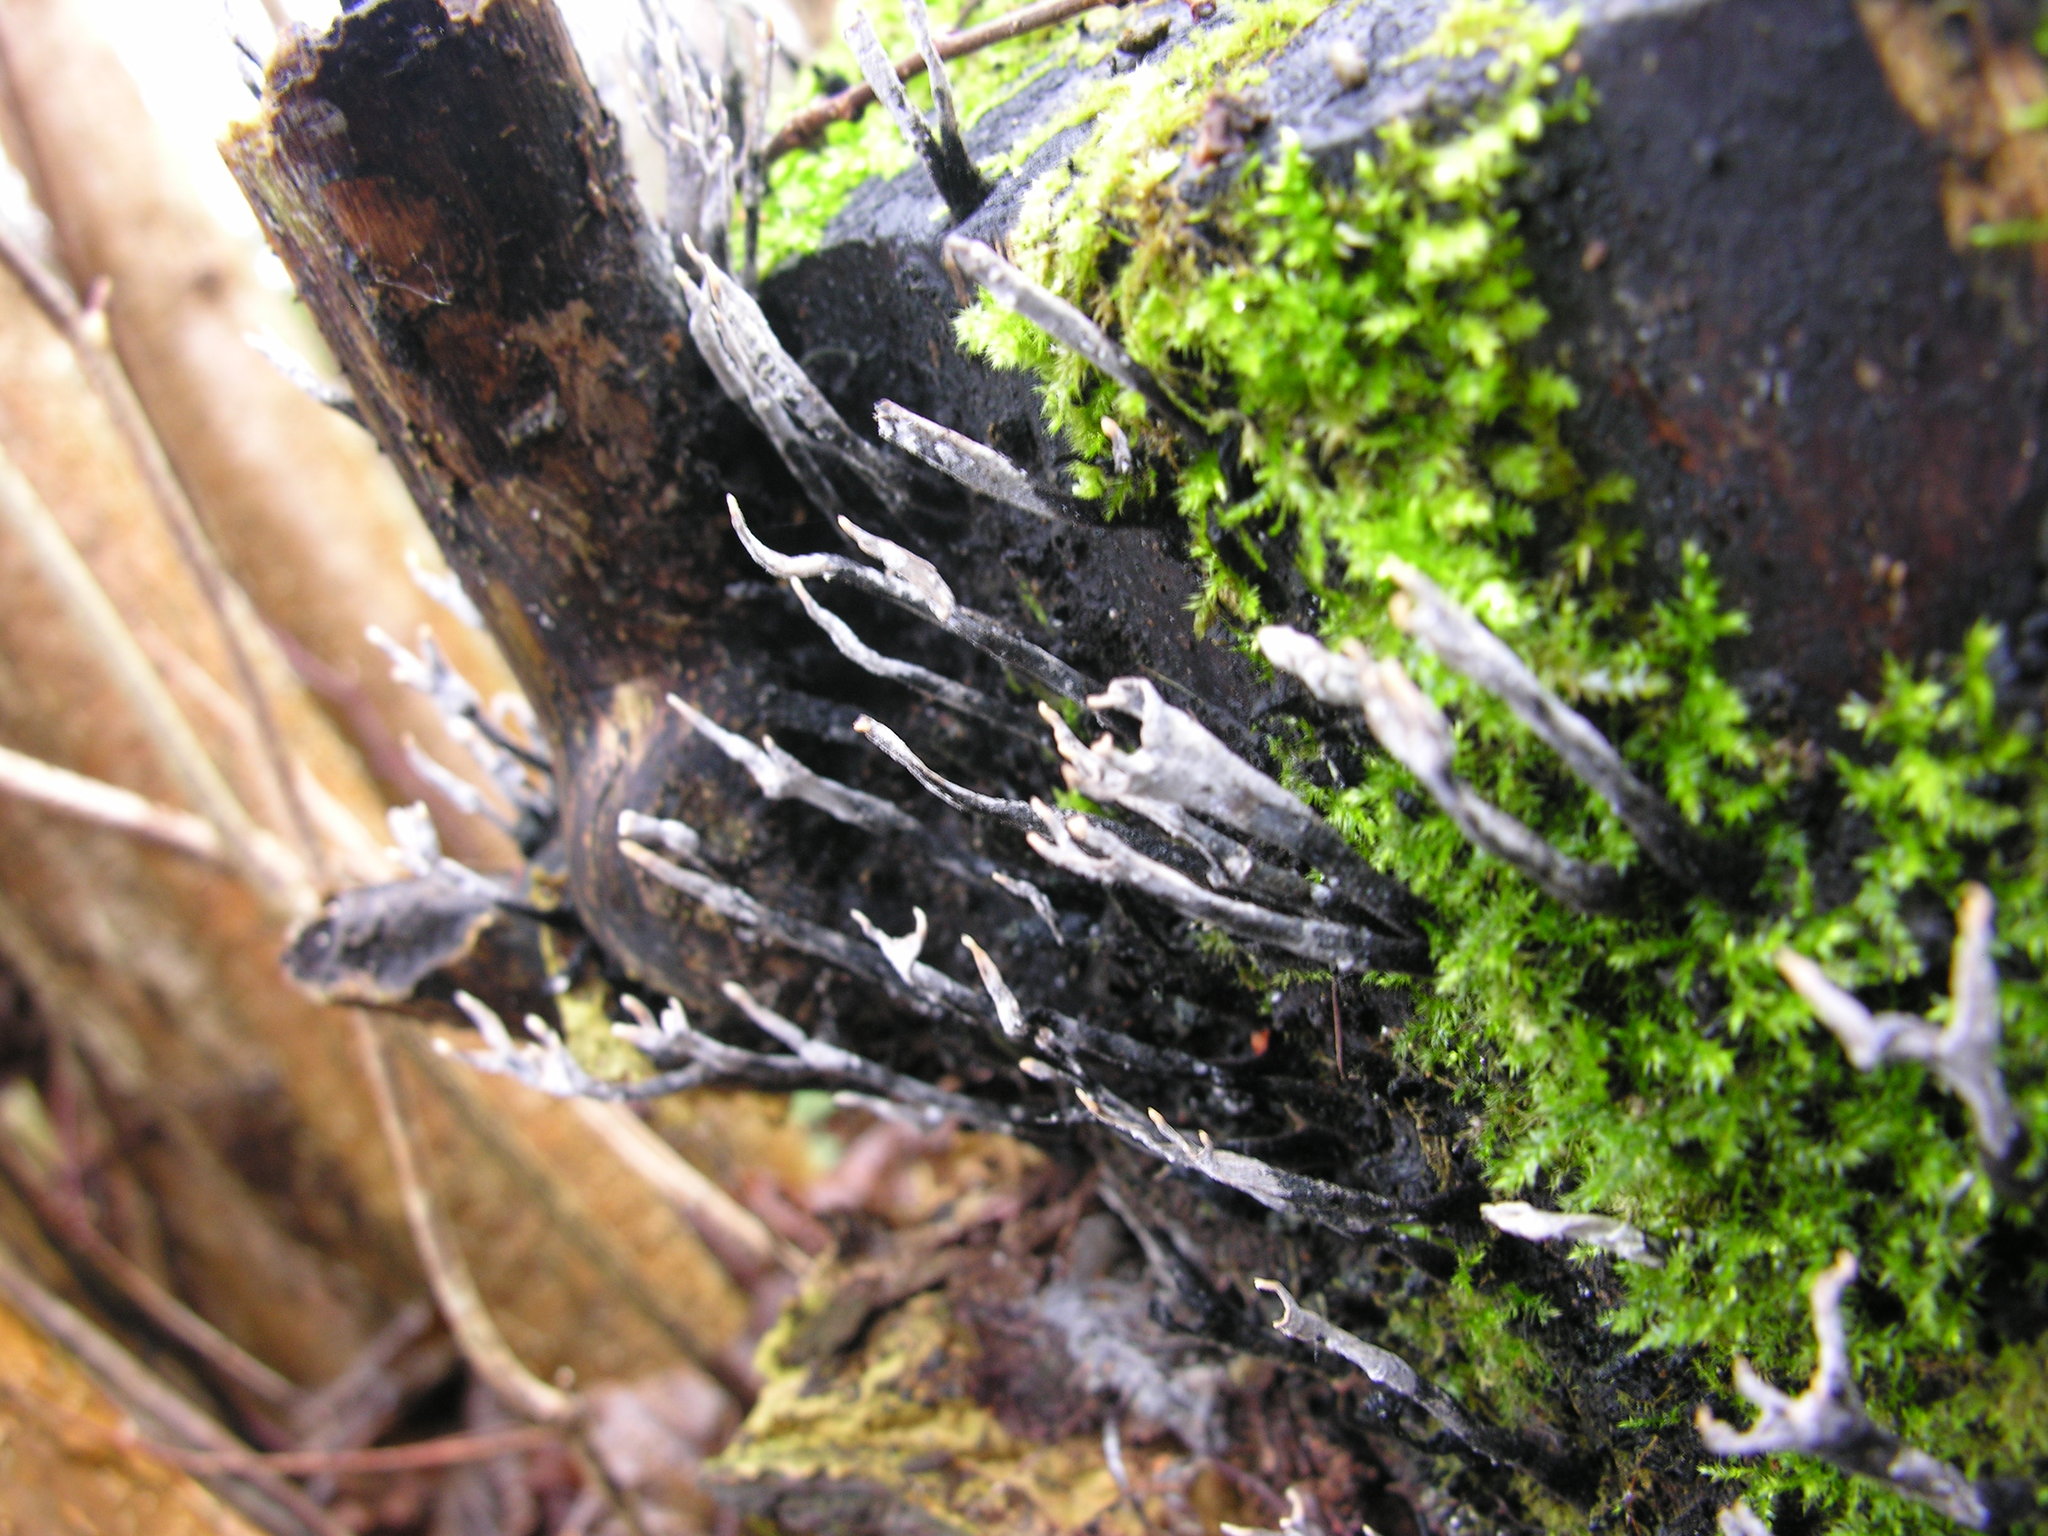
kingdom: Fungi
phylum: Ascomycota
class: Sordariomycetes
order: Xylariales
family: Xylariaceae
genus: Xylaria
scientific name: Xylaria hypoxylon
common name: Candle-snuff fungus
